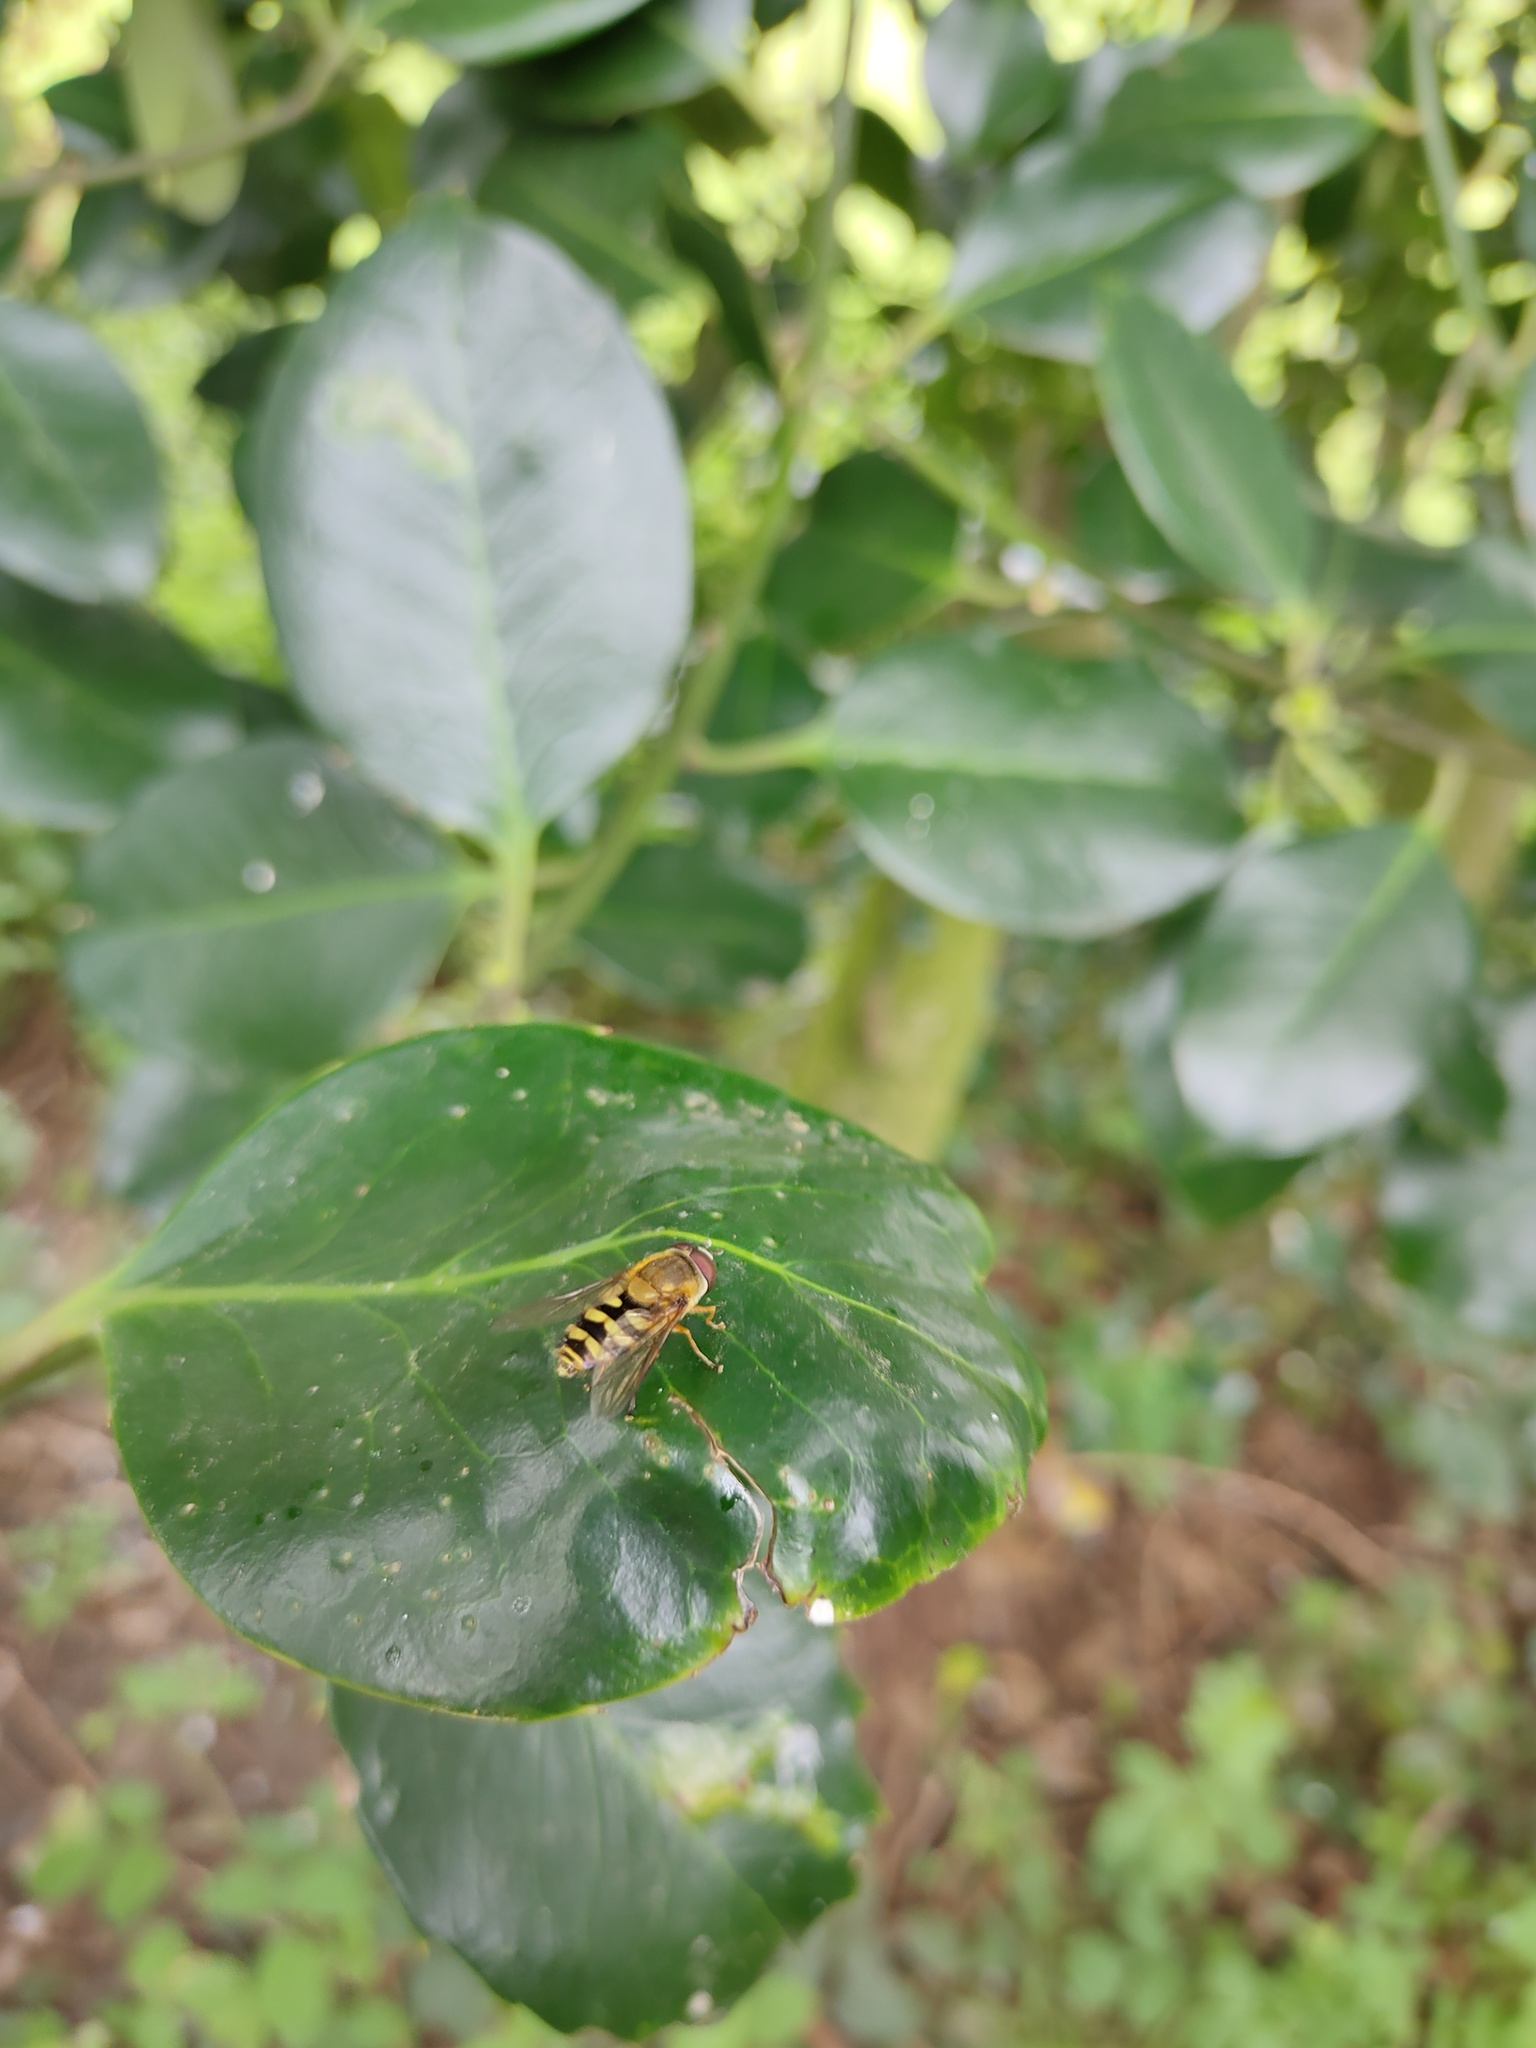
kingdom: Animalia
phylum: Arthropoda
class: Insecta
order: Diptera
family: Syrphidae
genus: Syrphus
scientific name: Syrphus
